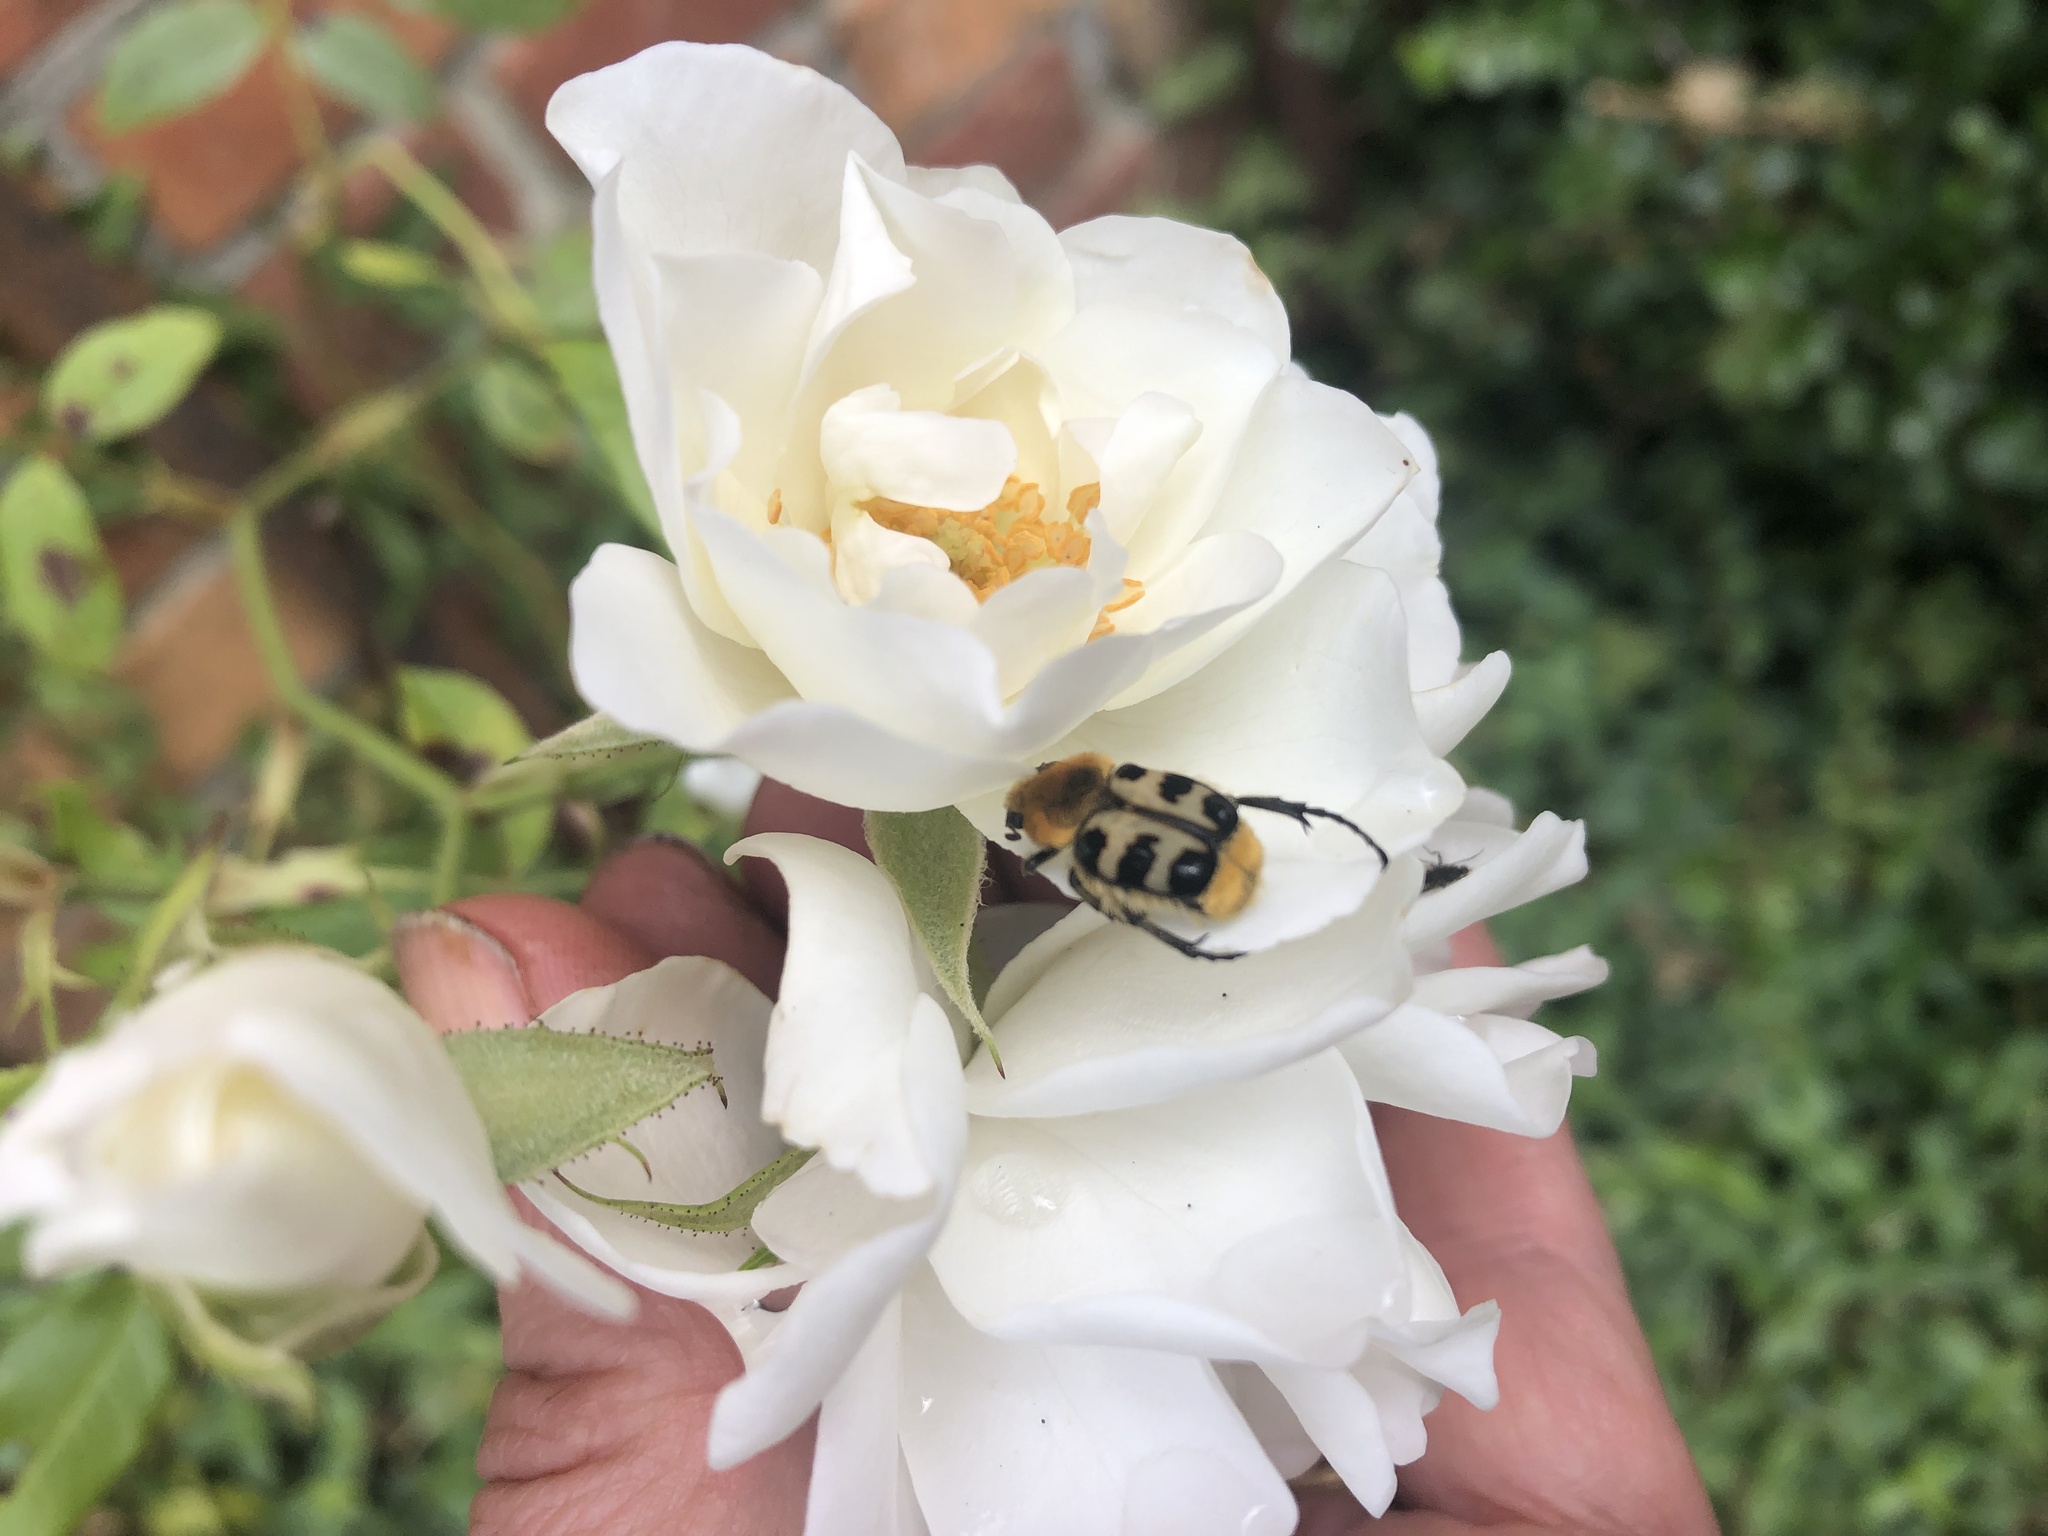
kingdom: Animalia
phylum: Arthropoda
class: Insecta
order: Coleoptera
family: Scarabaeidae
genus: Trichius
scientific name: Trichius
